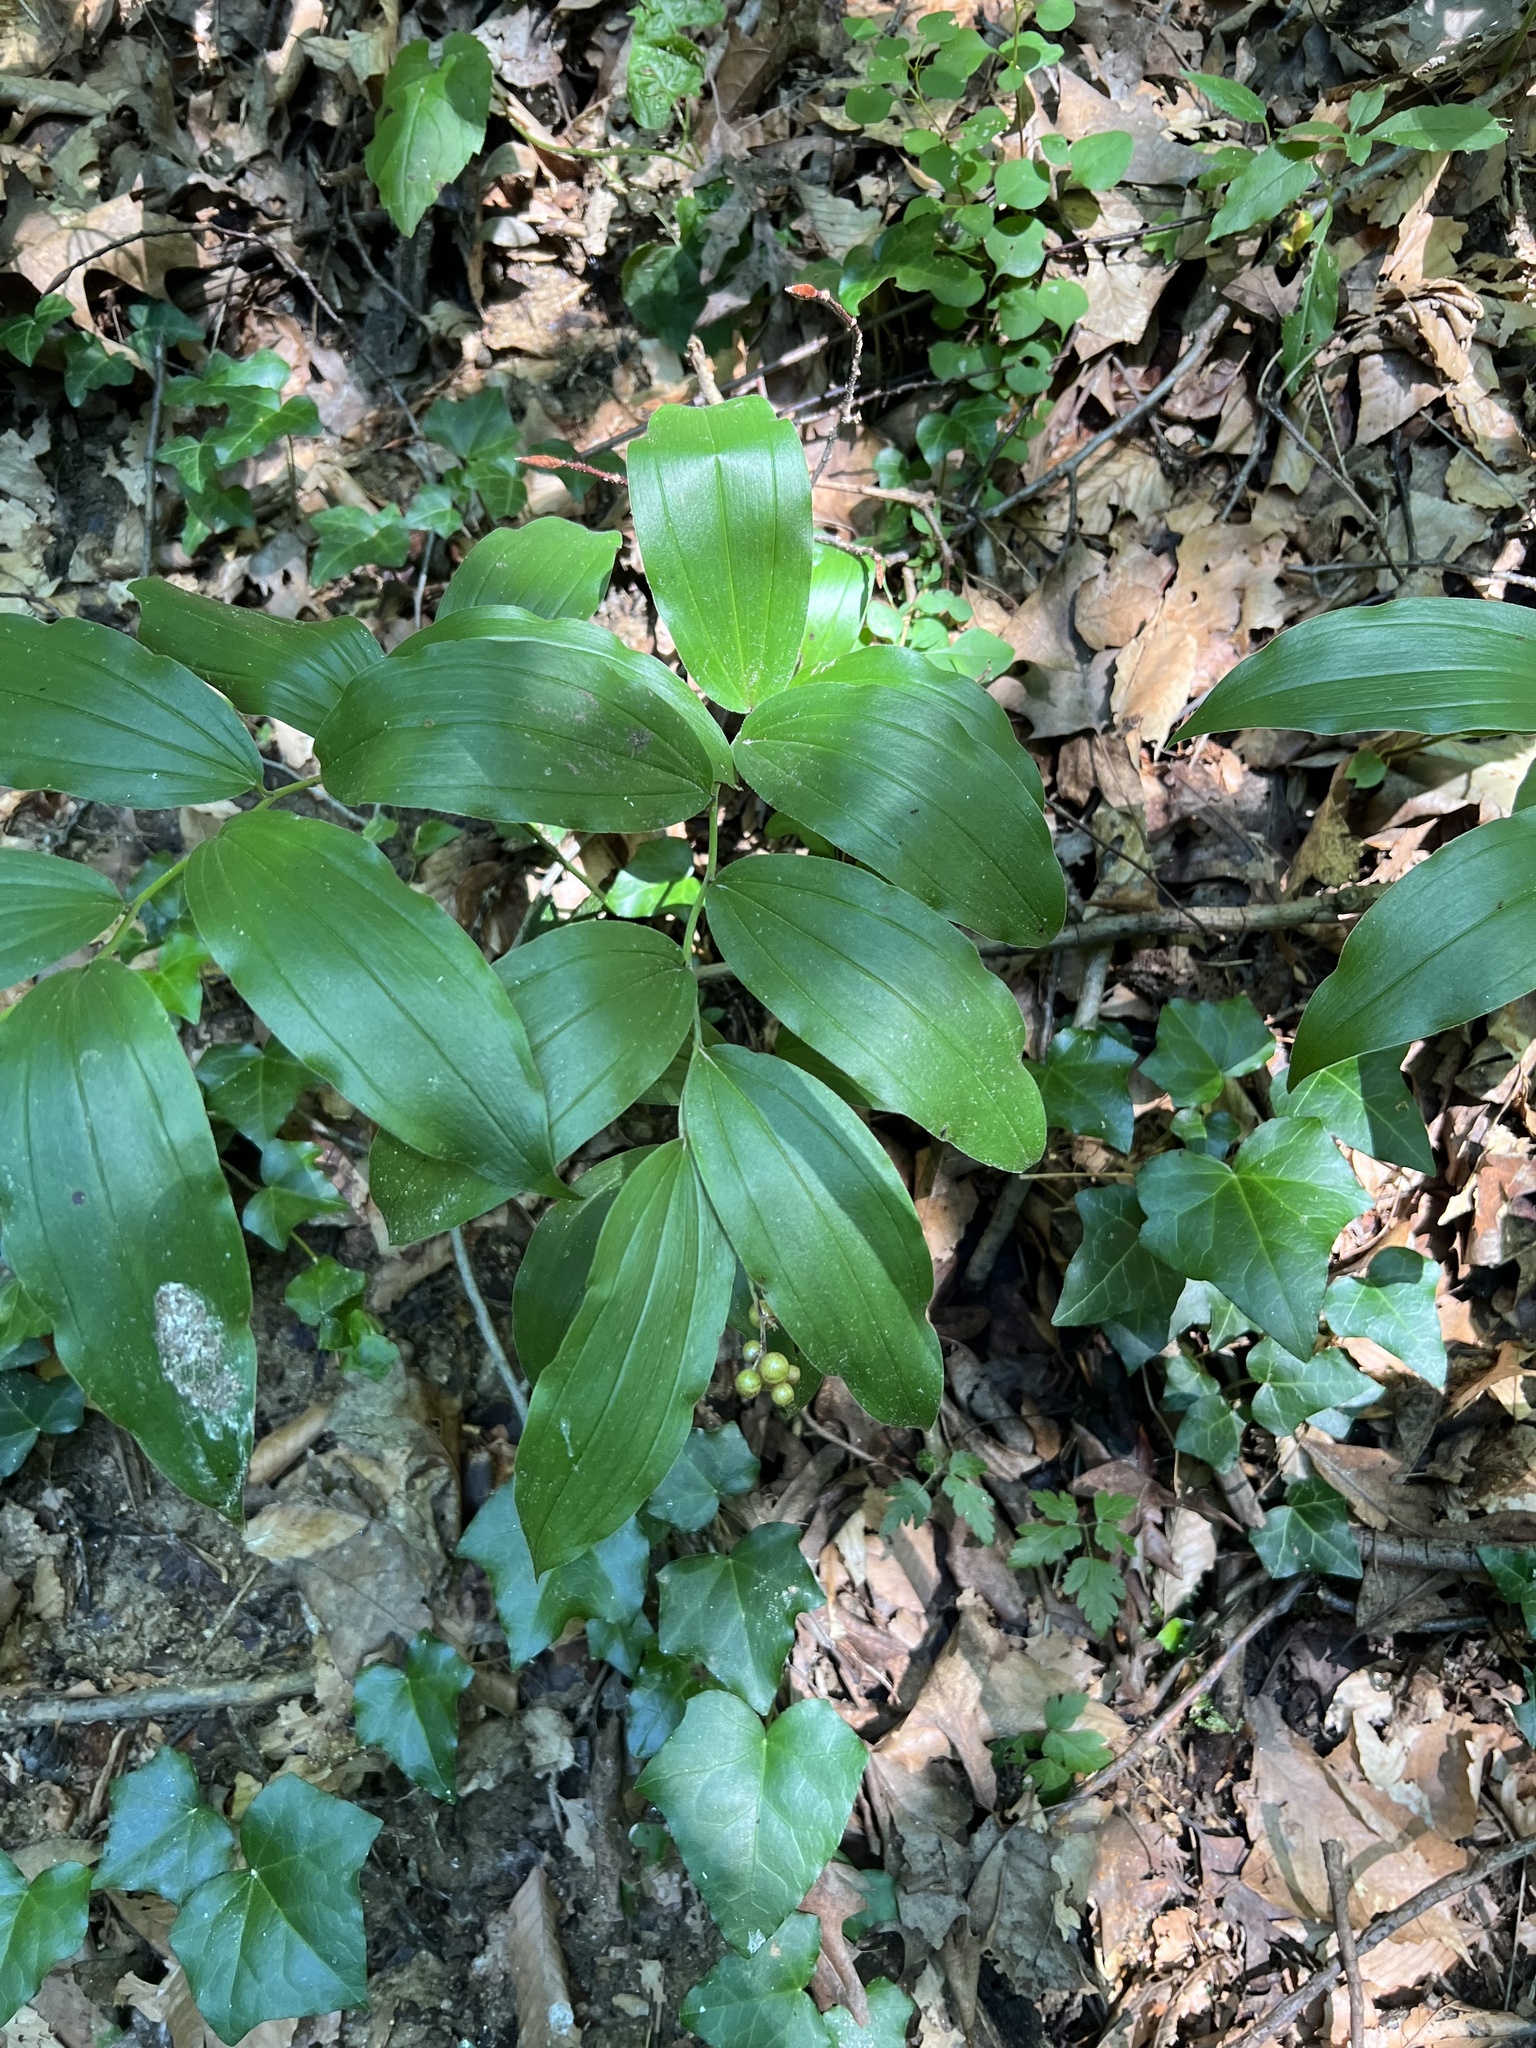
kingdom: Plantae
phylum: Tracheophyta
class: Liliopsida
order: Asparagales
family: Asparagaceae
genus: Maianthemum
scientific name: Maianthemum racemosum
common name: False spikenard
